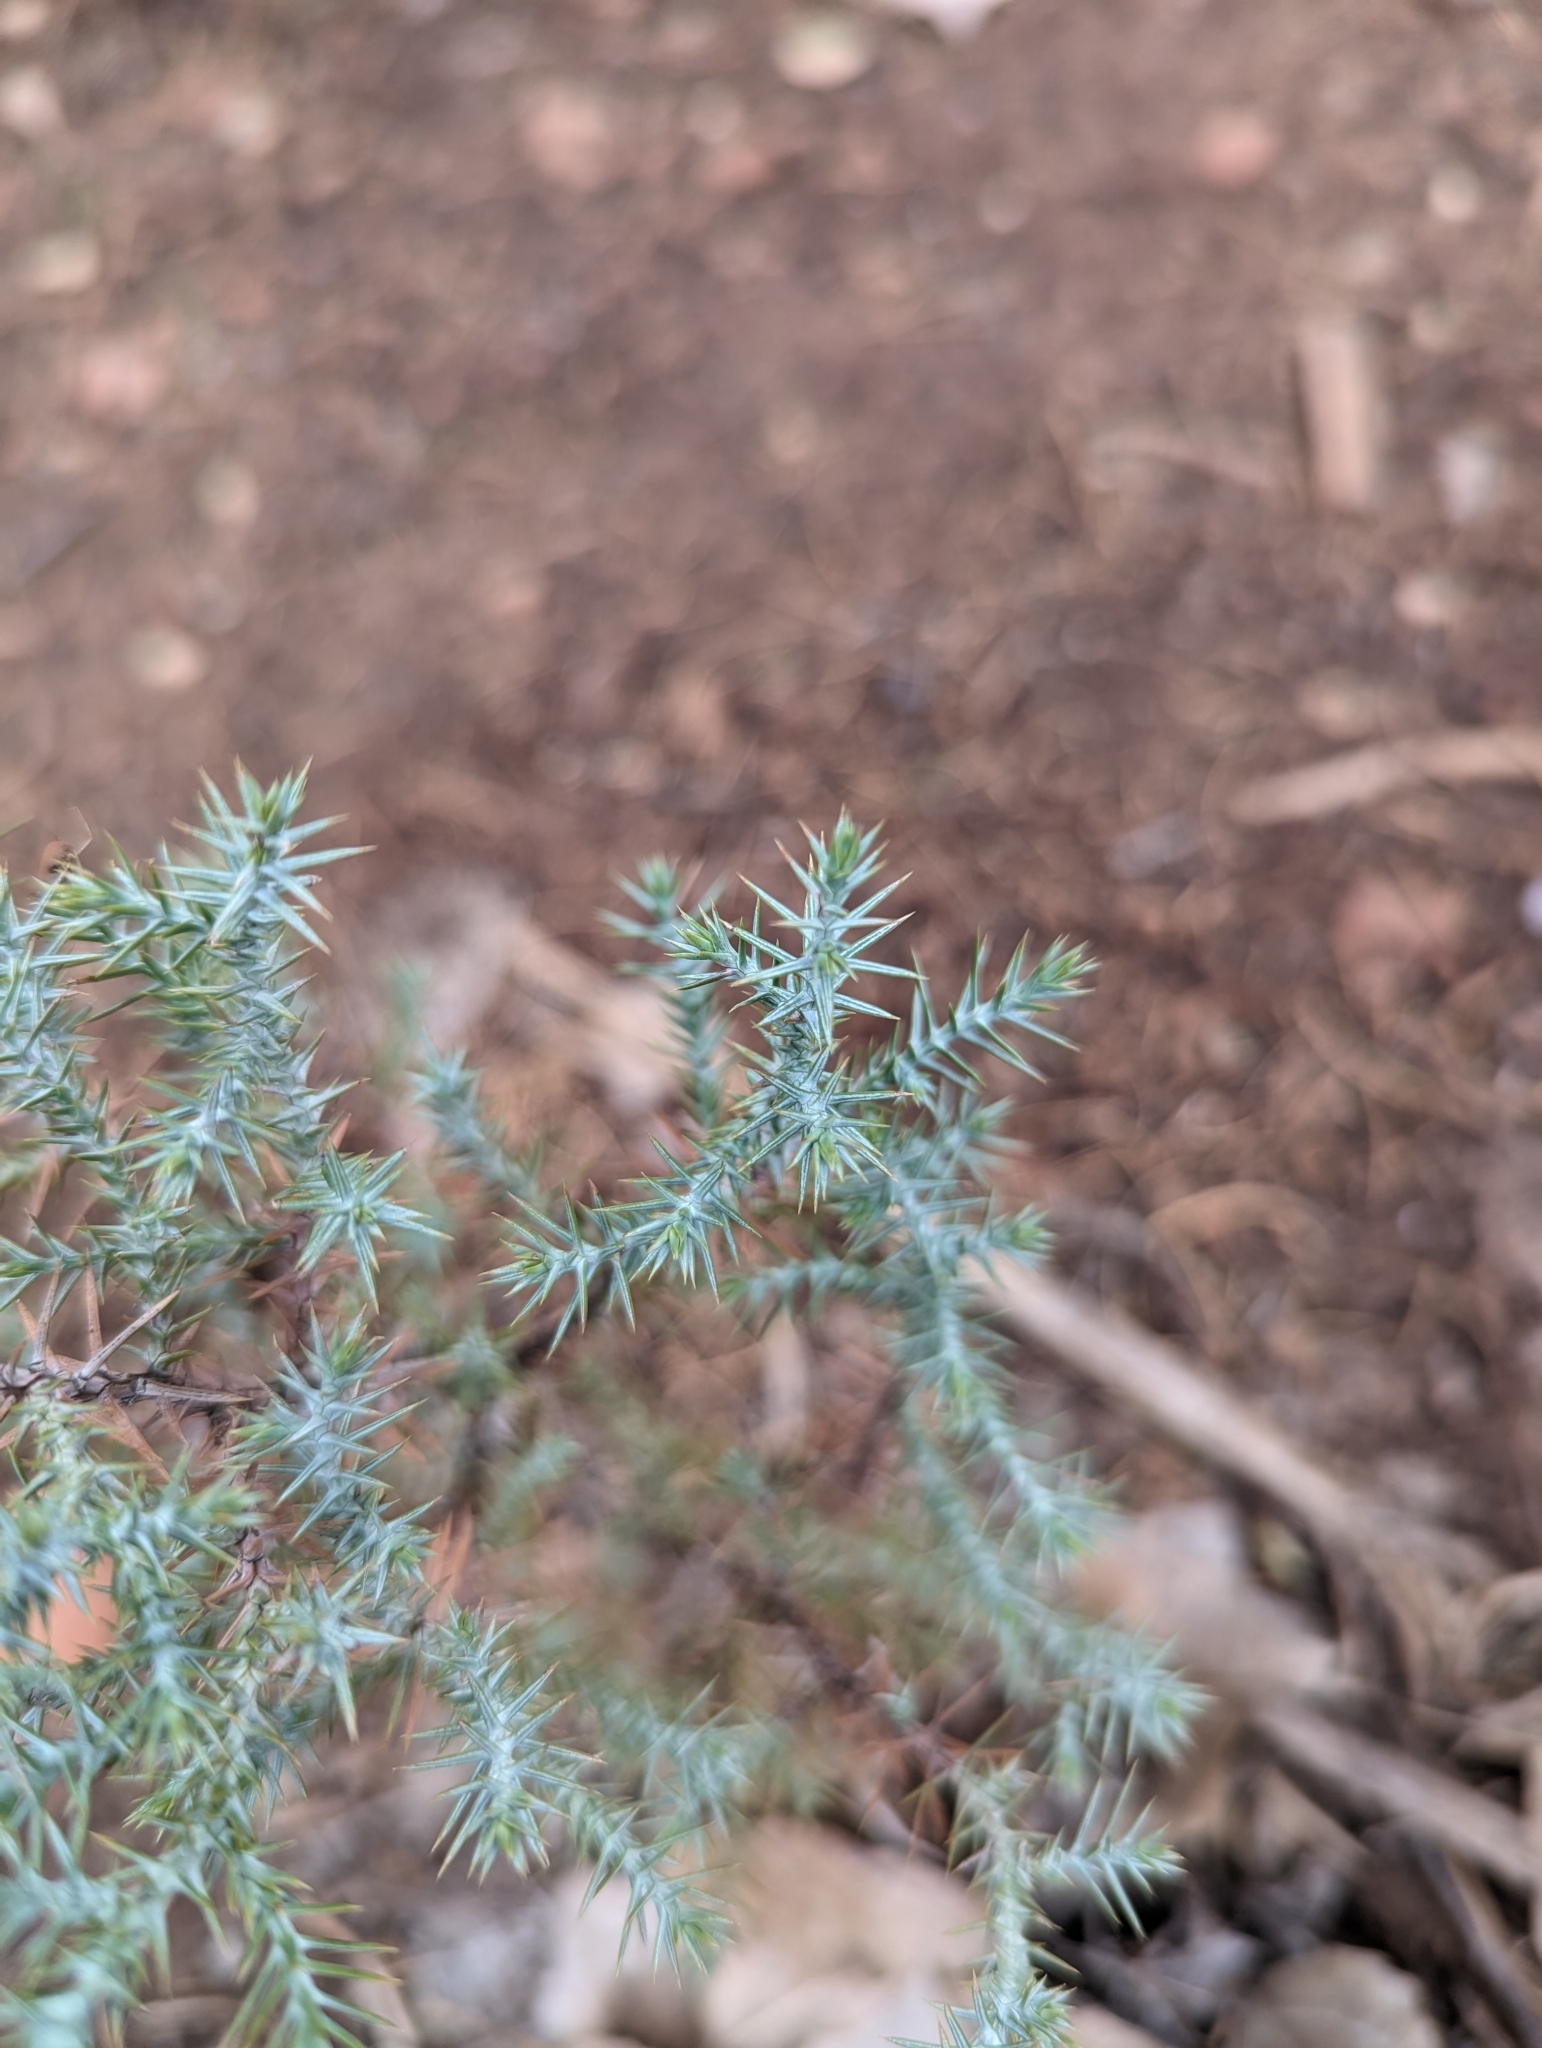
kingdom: Plantae
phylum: Tracheophyta
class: Pinopsida
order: Pinales
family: Cupressaceae
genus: Juniperus
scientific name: Juniperus osteosperma
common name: Utah juniper
